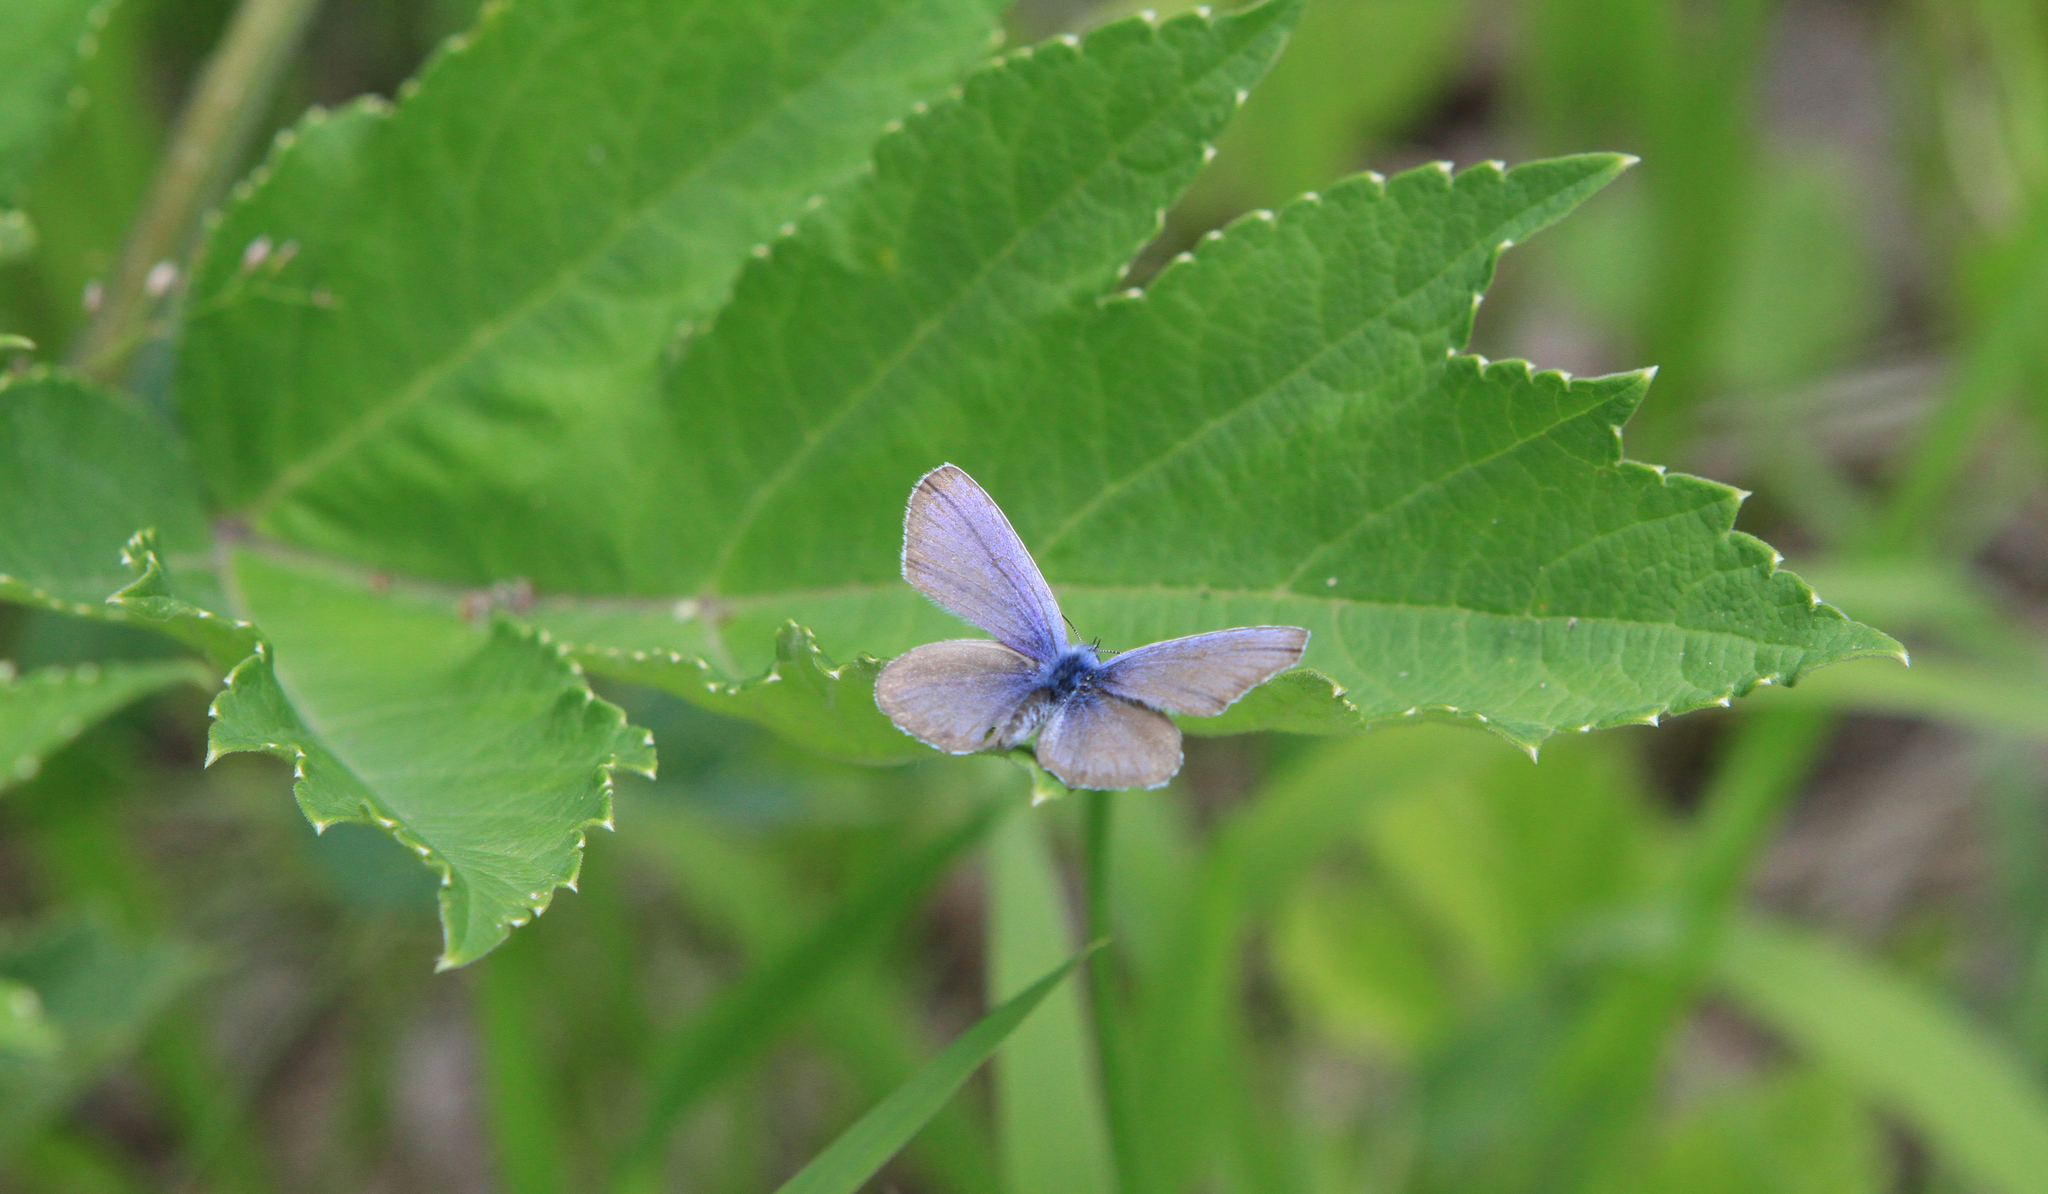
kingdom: Plantae
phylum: Tracheophyta
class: Magnoliopsida
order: Apiales
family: Apiaceae
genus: Heracleum
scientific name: Heracleum dissectum
